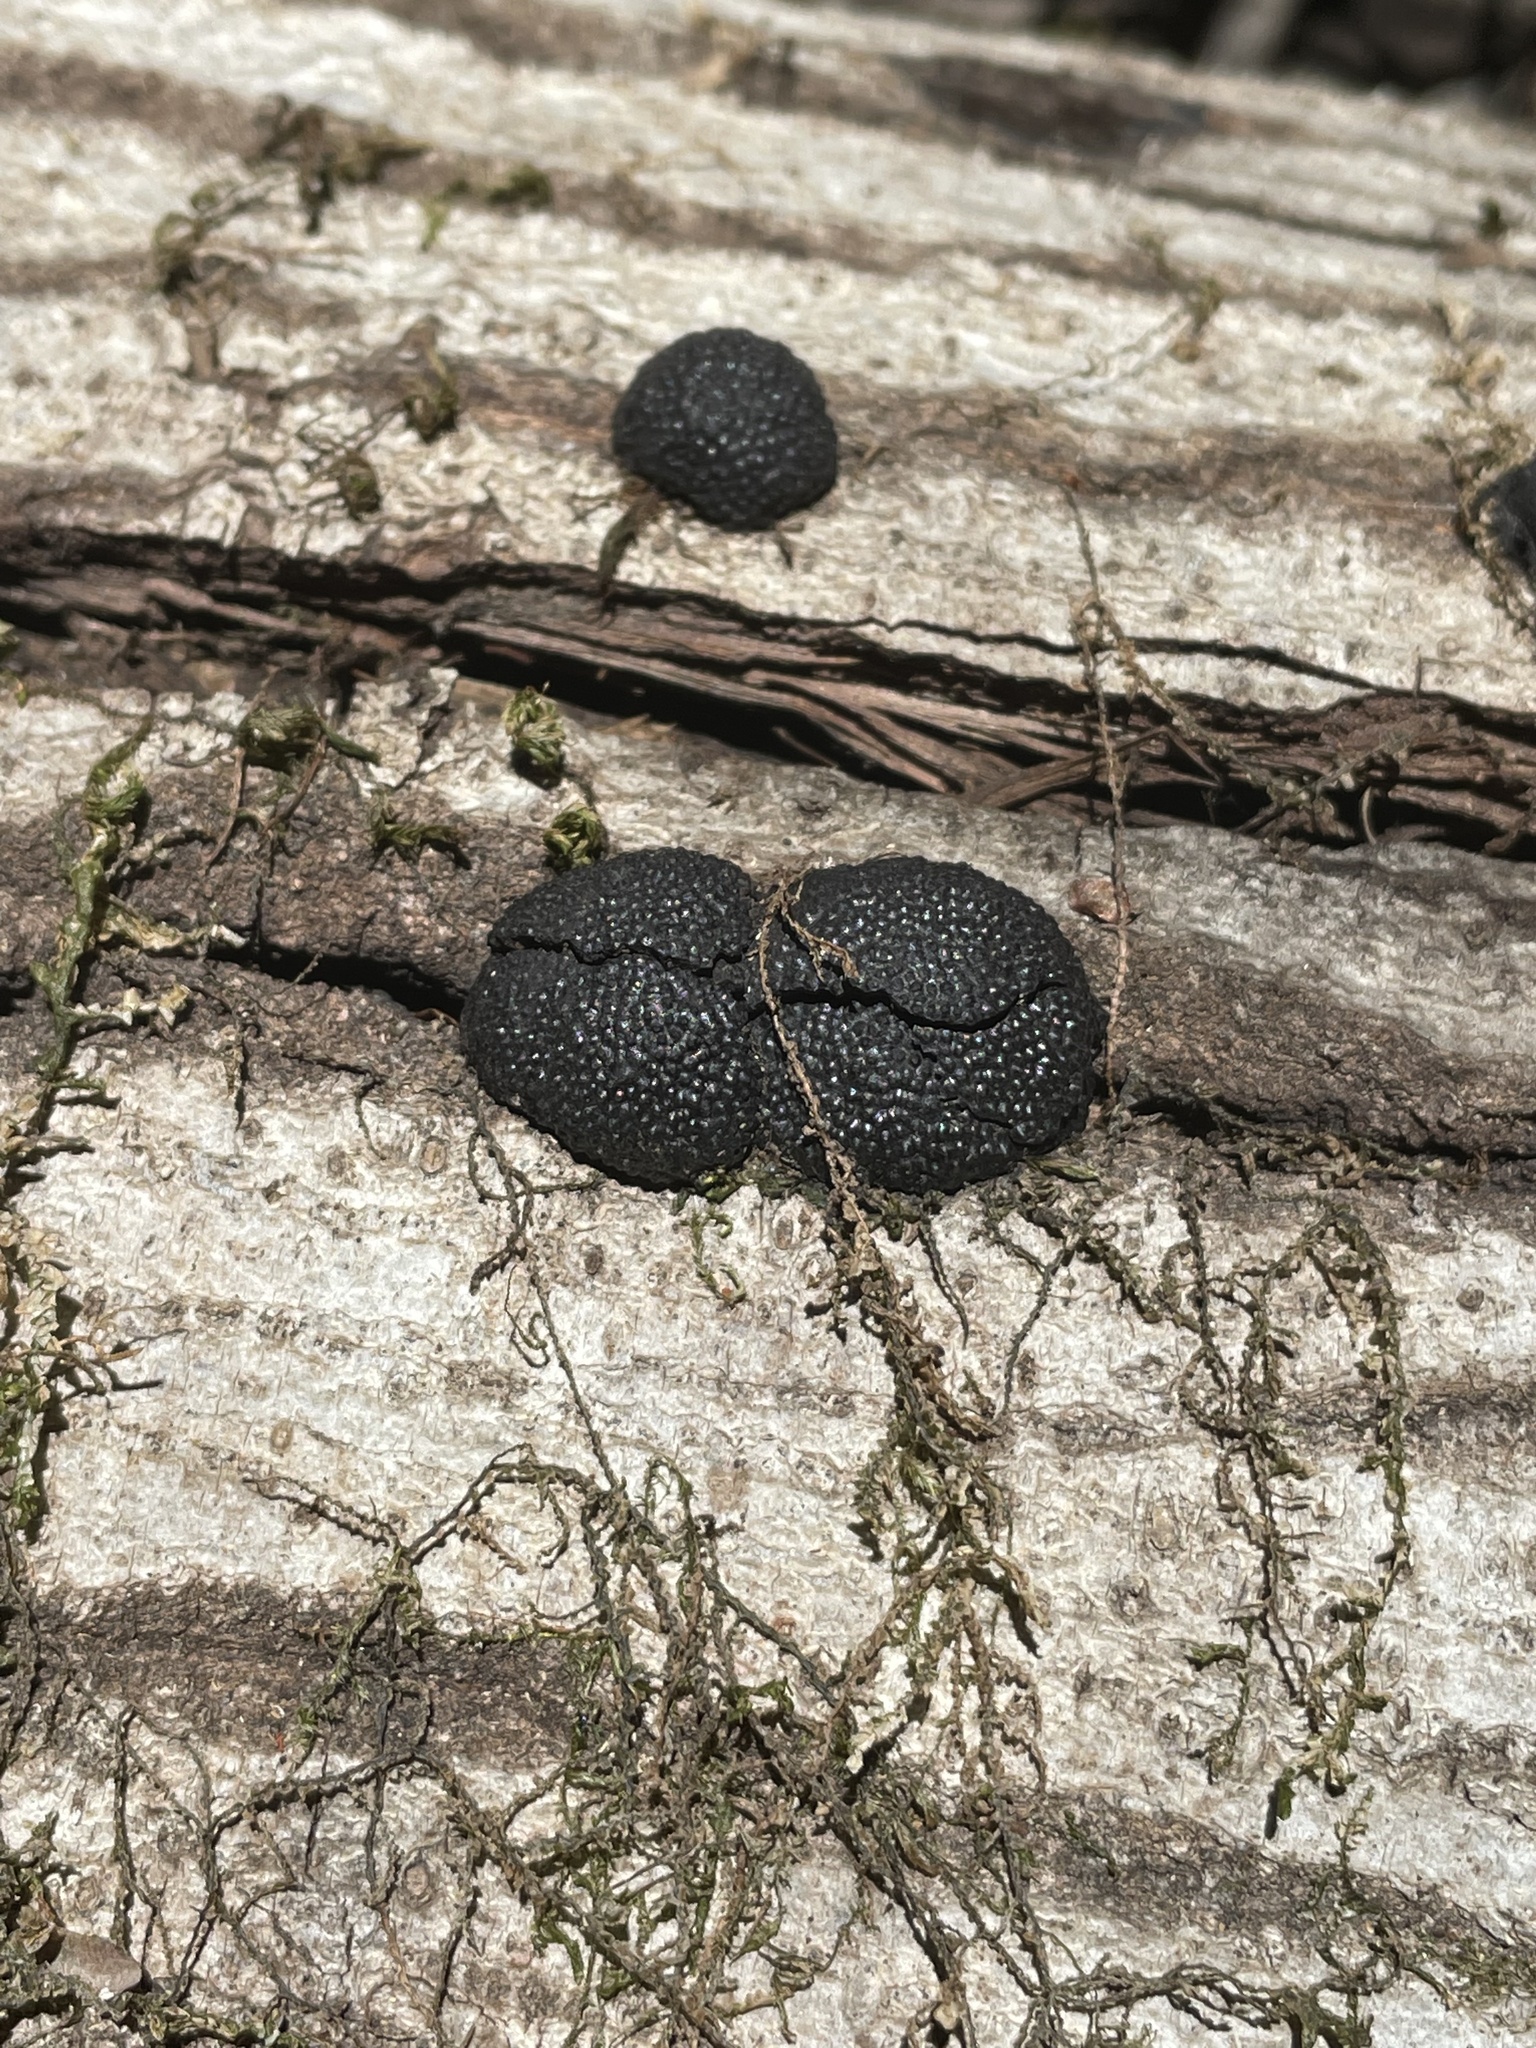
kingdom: Fungi
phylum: Ascomycota
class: Sordariomycetes
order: Xylariales
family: Hypoxylaceae
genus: Annulohypoxylon
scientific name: Annulohypoxylon thouarsianum
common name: Cramp balls
